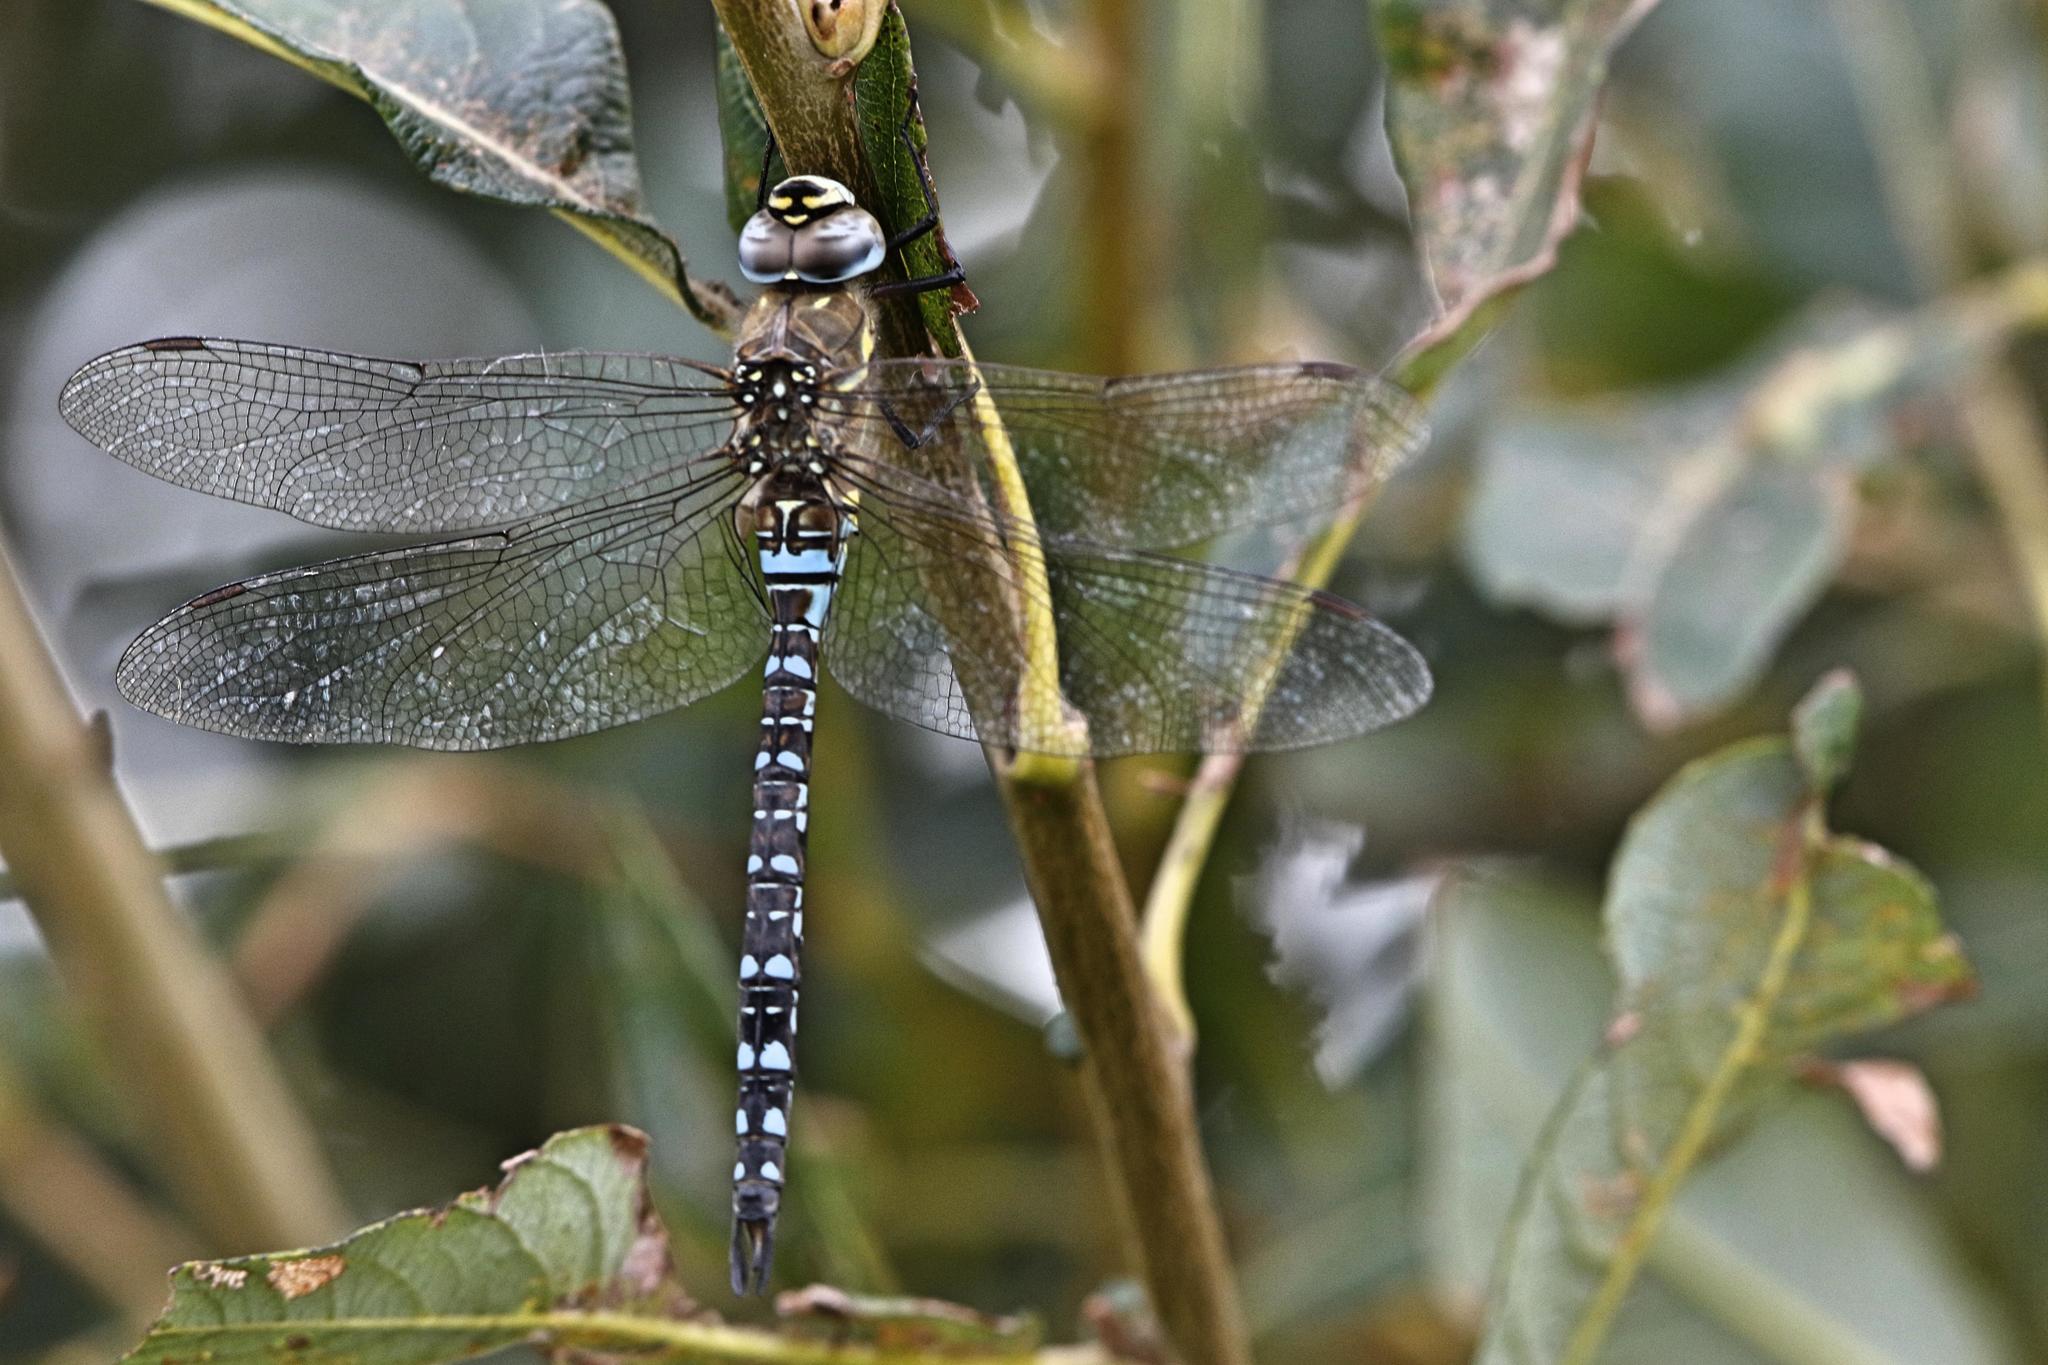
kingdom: Animalia
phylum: Arthropoda
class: Insecta
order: Odonata
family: Aeshnidae
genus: Aeshna
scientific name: Aeshna mixta
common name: Migrant hawker
